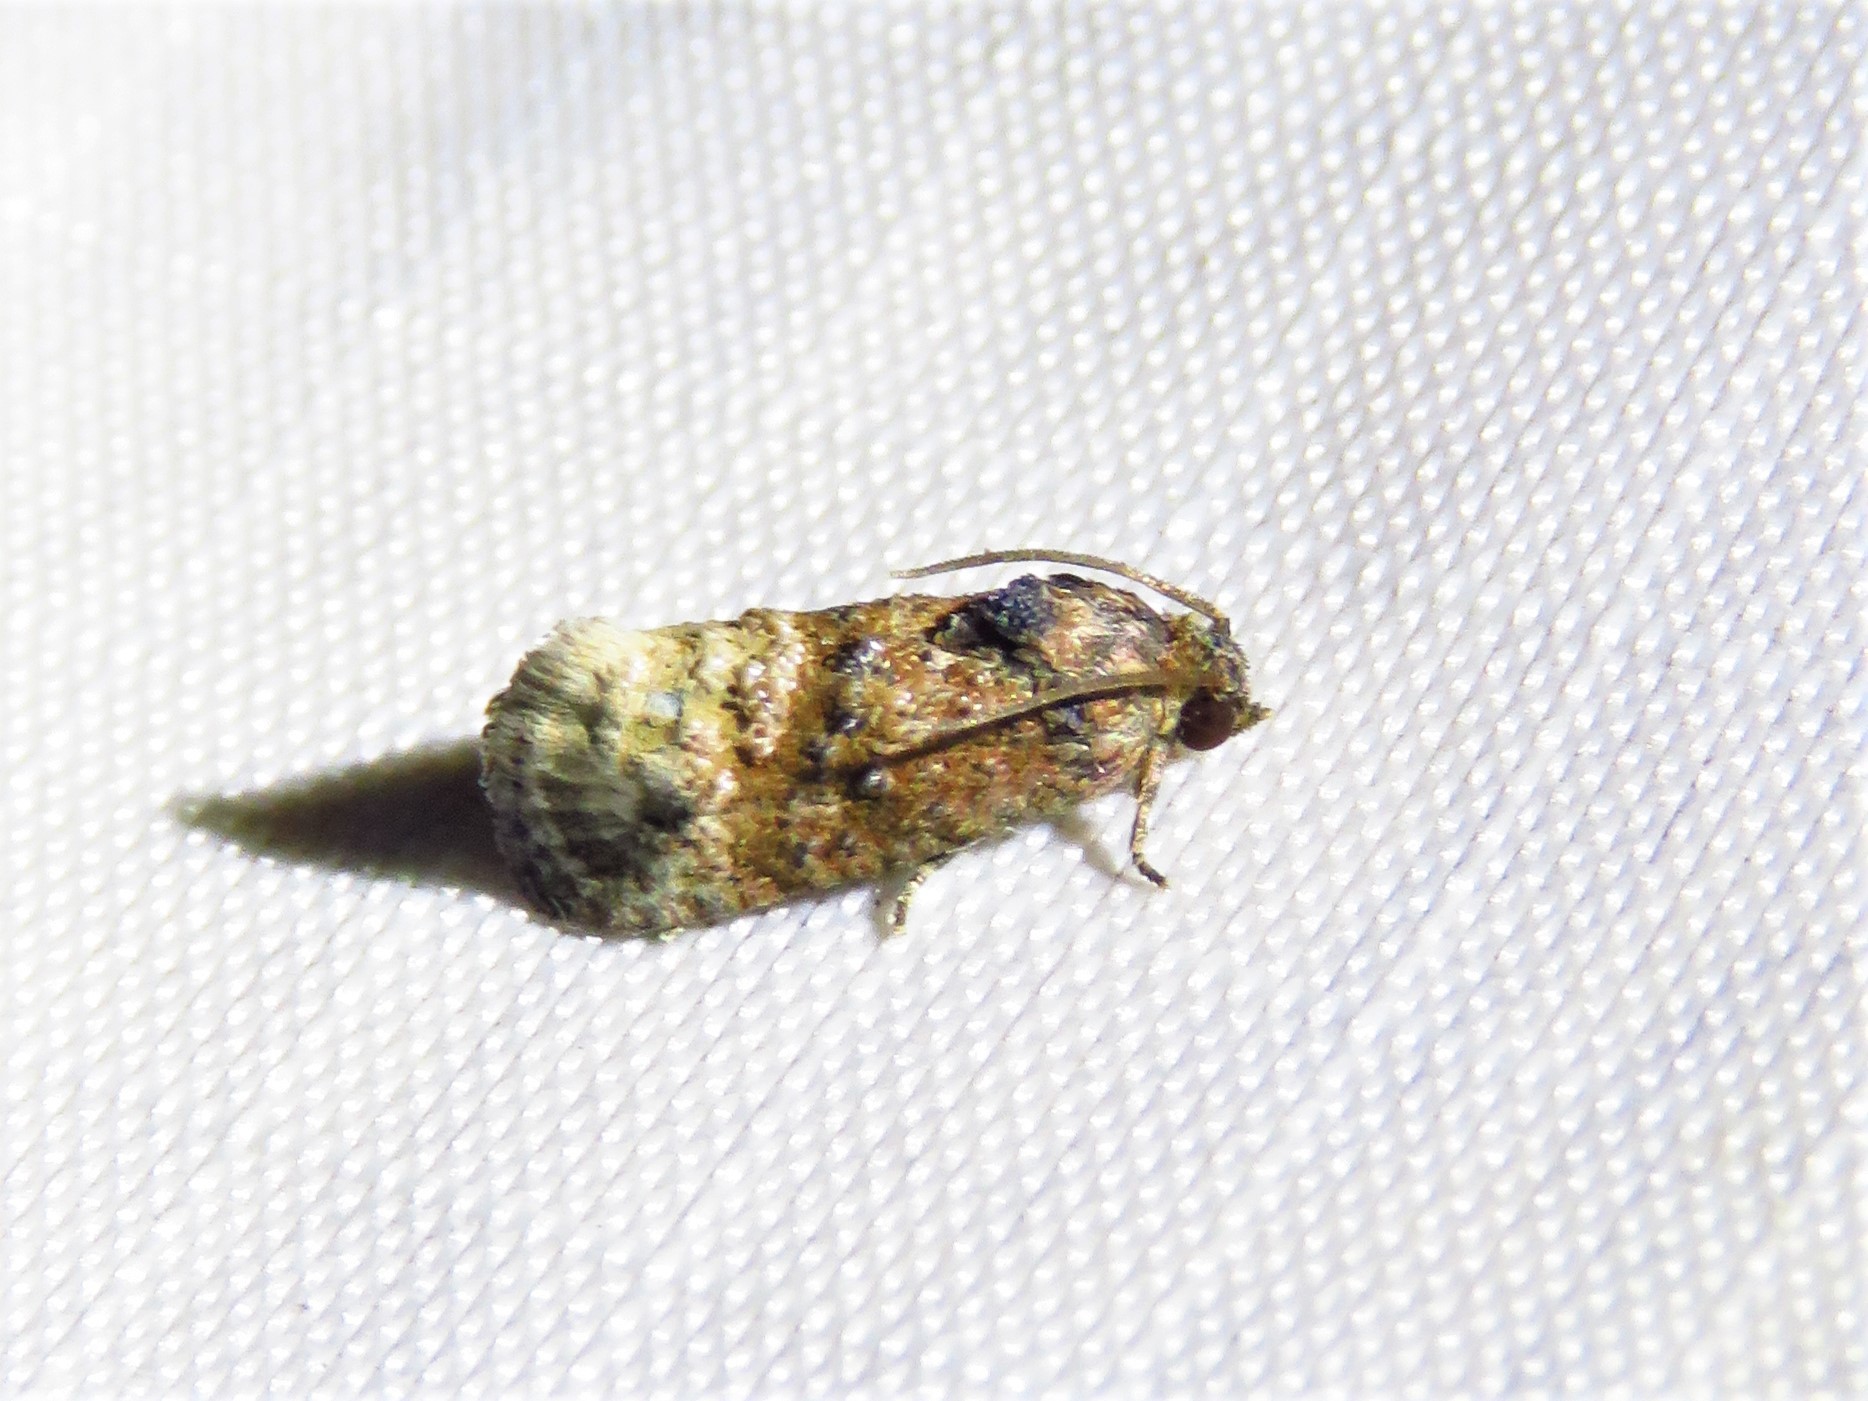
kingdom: Animalia
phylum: Arthropoda
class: Insecta
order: Lepidoptera
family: Tortricidae
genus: Ecdytolopha
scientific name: Ecdytolopha mana
